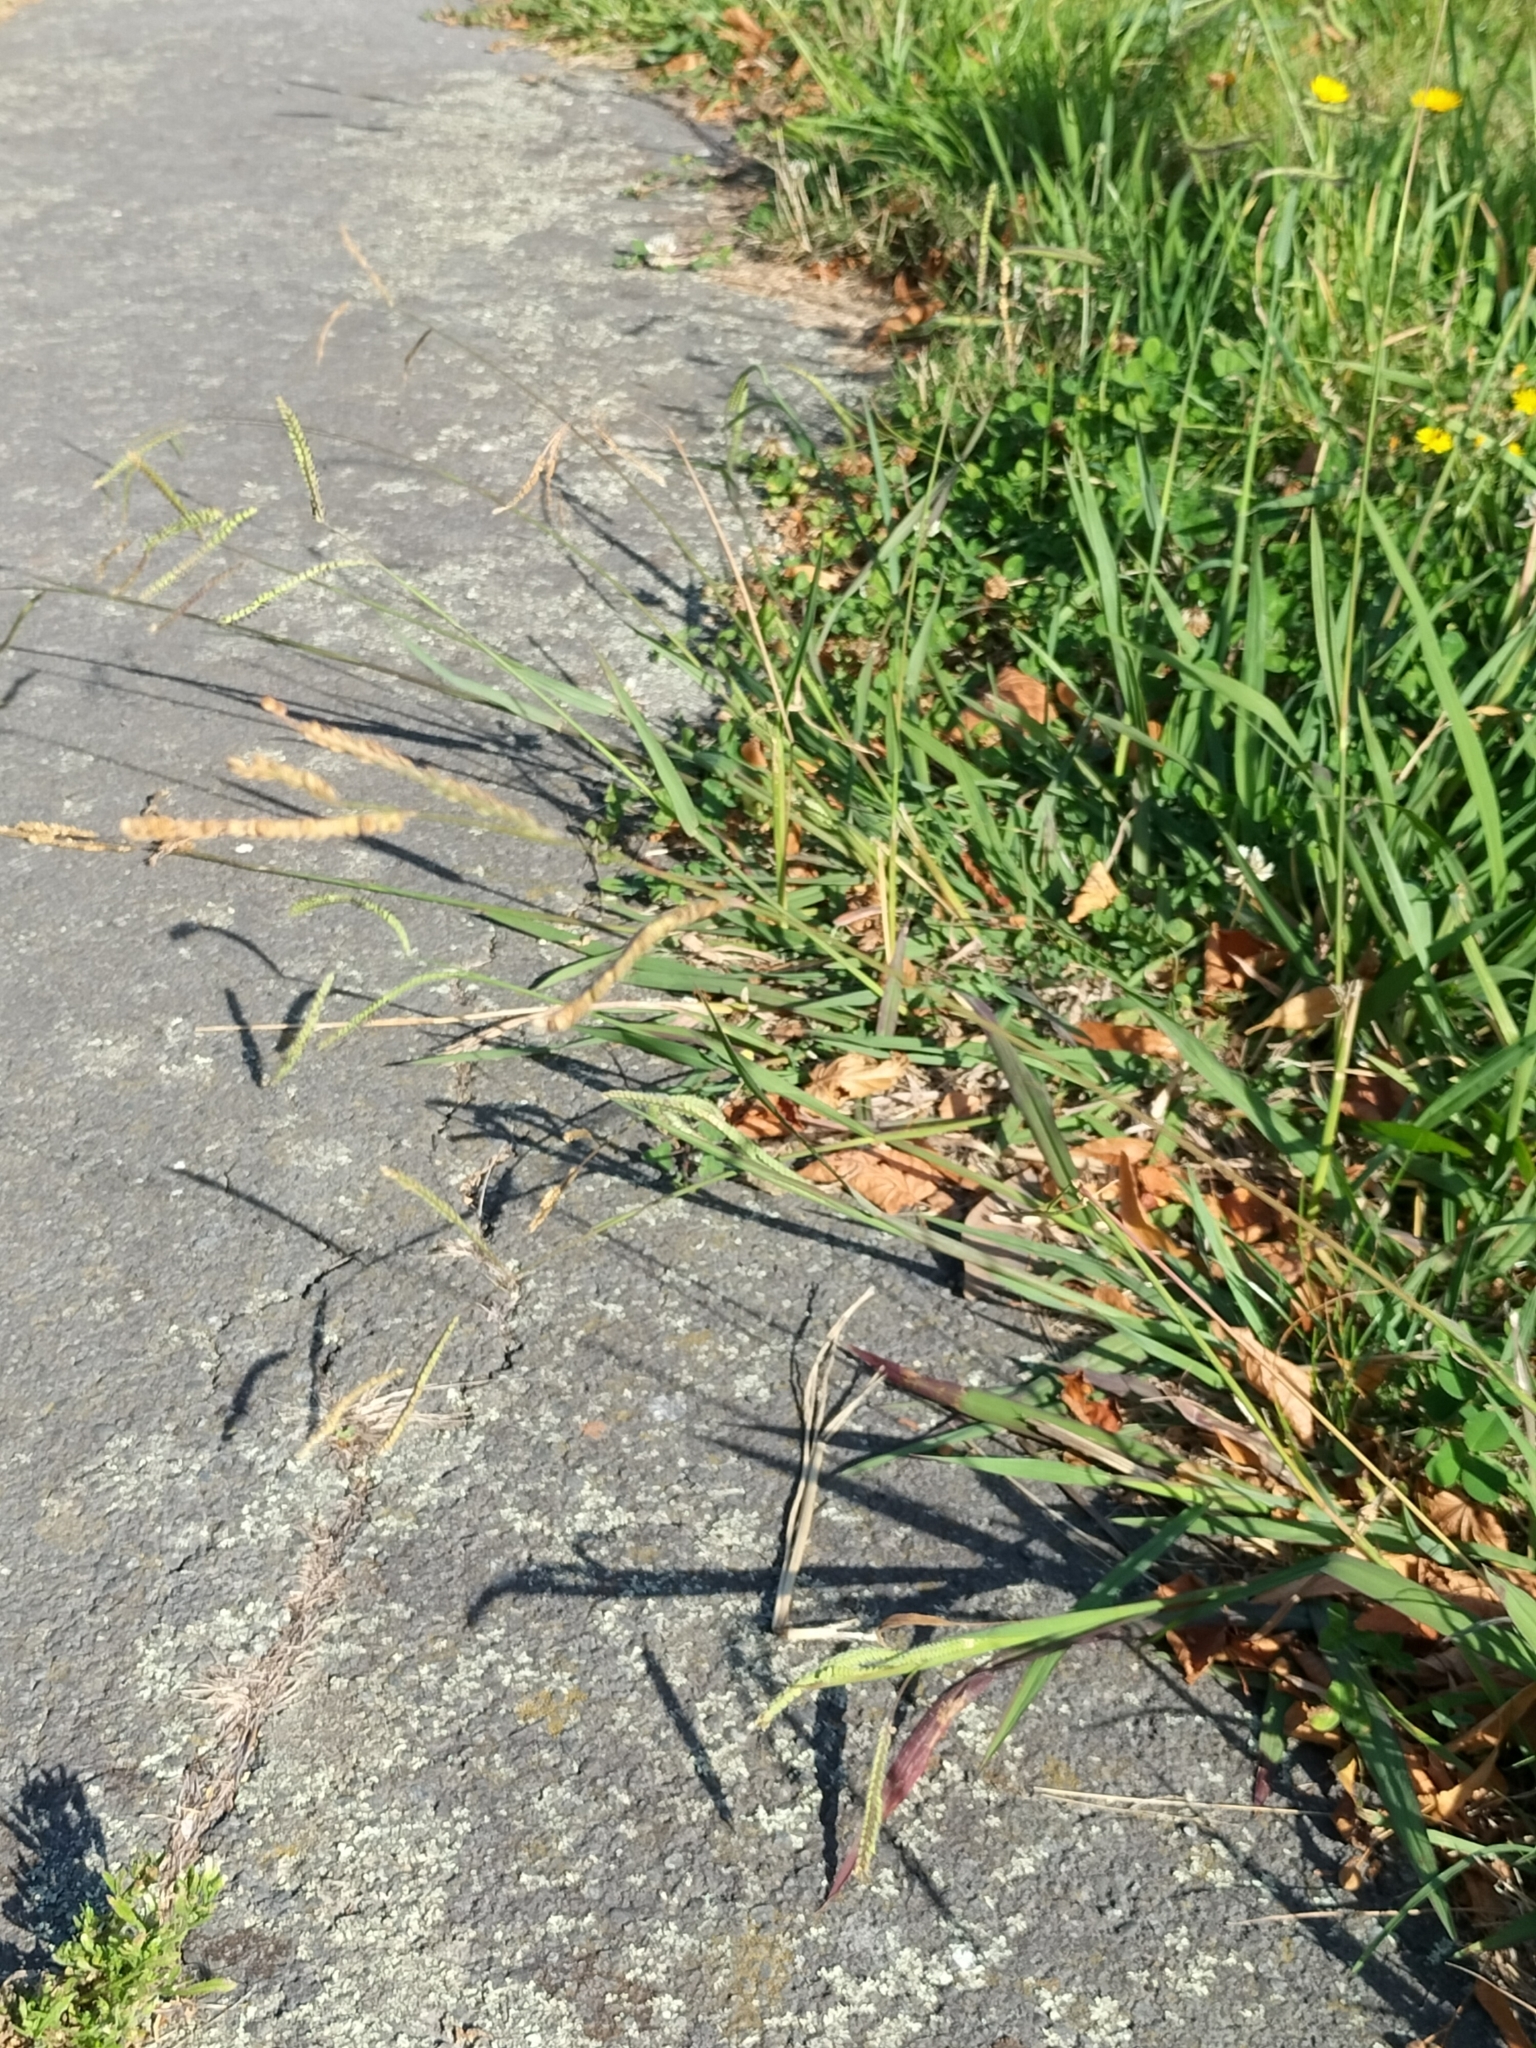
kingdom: Plantae
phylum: Tracheophyta
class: Liliopsida
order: Poales
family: Poaceae
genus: Paspalum
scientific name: Paspalum dilatatum
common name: Dallisgrass
